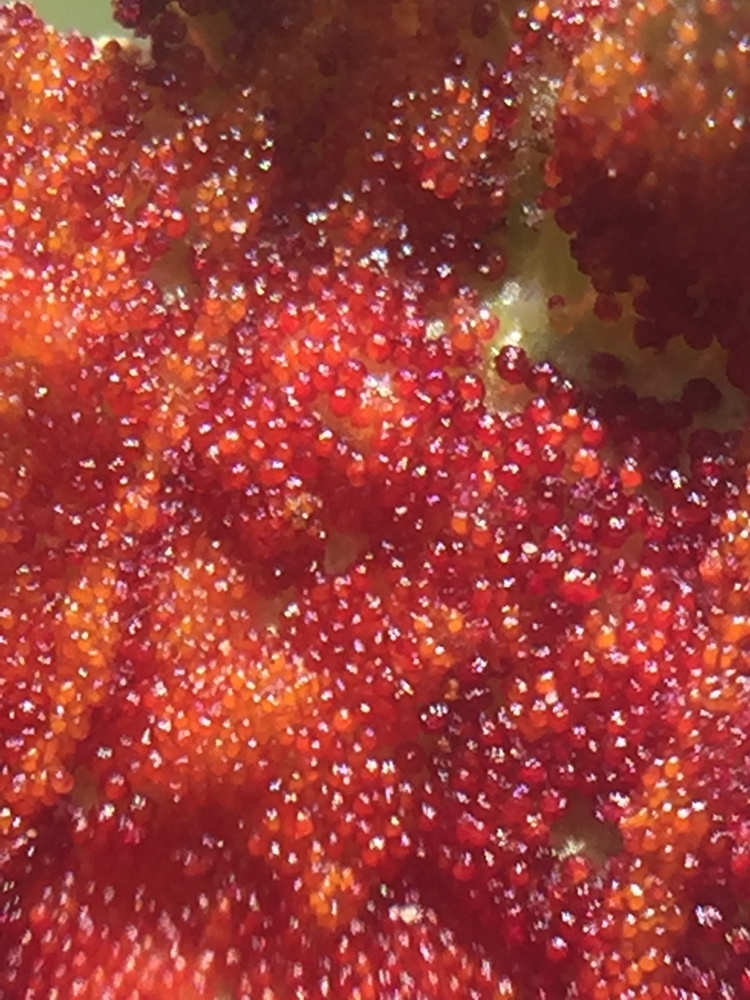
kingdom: Fungi
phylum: Chytridiomycota
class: Chytridiomycetes
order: Chytridiales
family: Synchytriaceae
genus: Synchytrium
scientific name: Synchytrium australe
